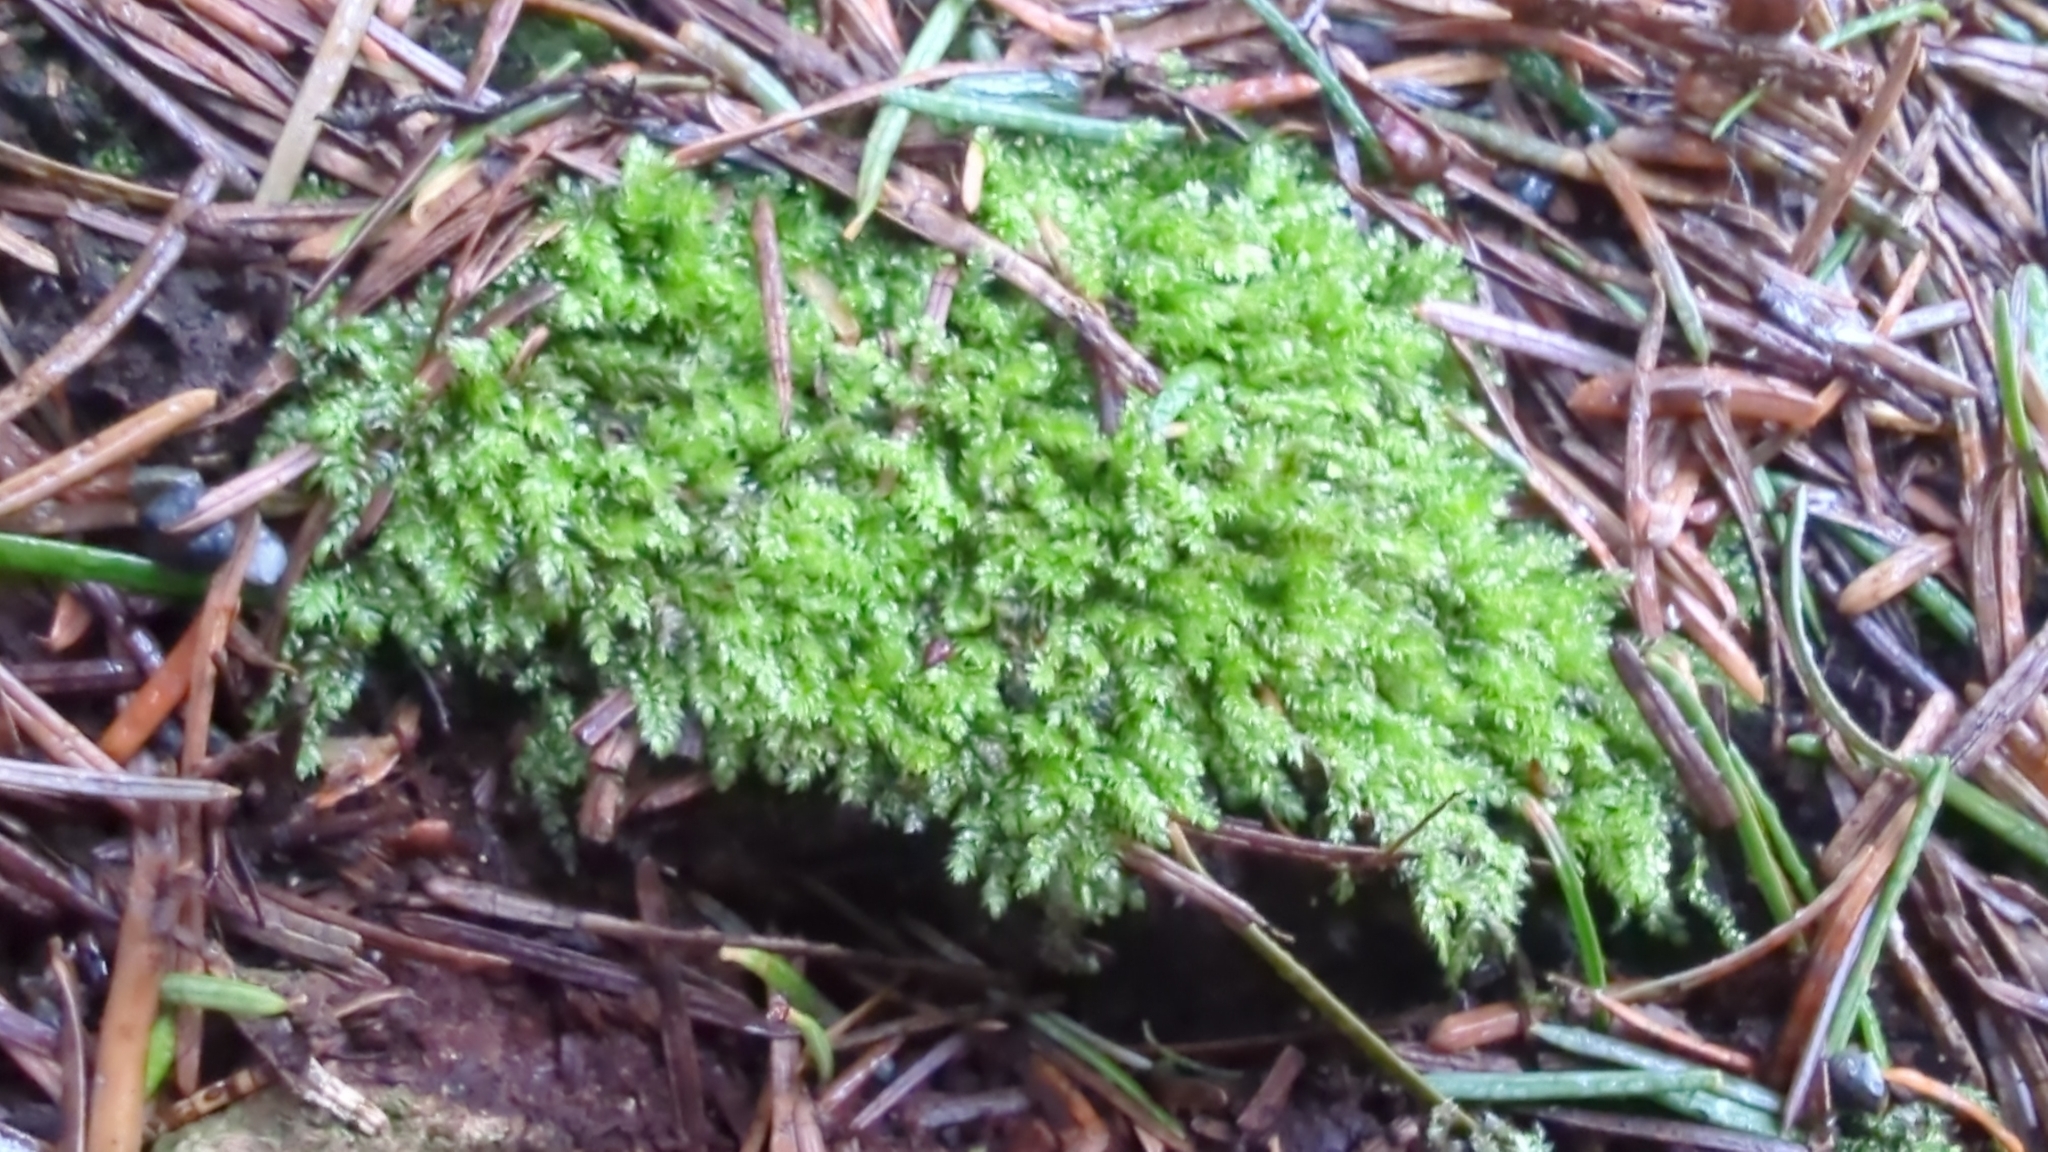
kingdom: Plantae
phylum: Bryophyta
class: Bryopsida
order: Hypnales
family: Plagiotheciaceae
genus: Pseudotaxiphyllum
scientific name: Pseudotaxiphyllum elegans
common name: Elegant silk moss
